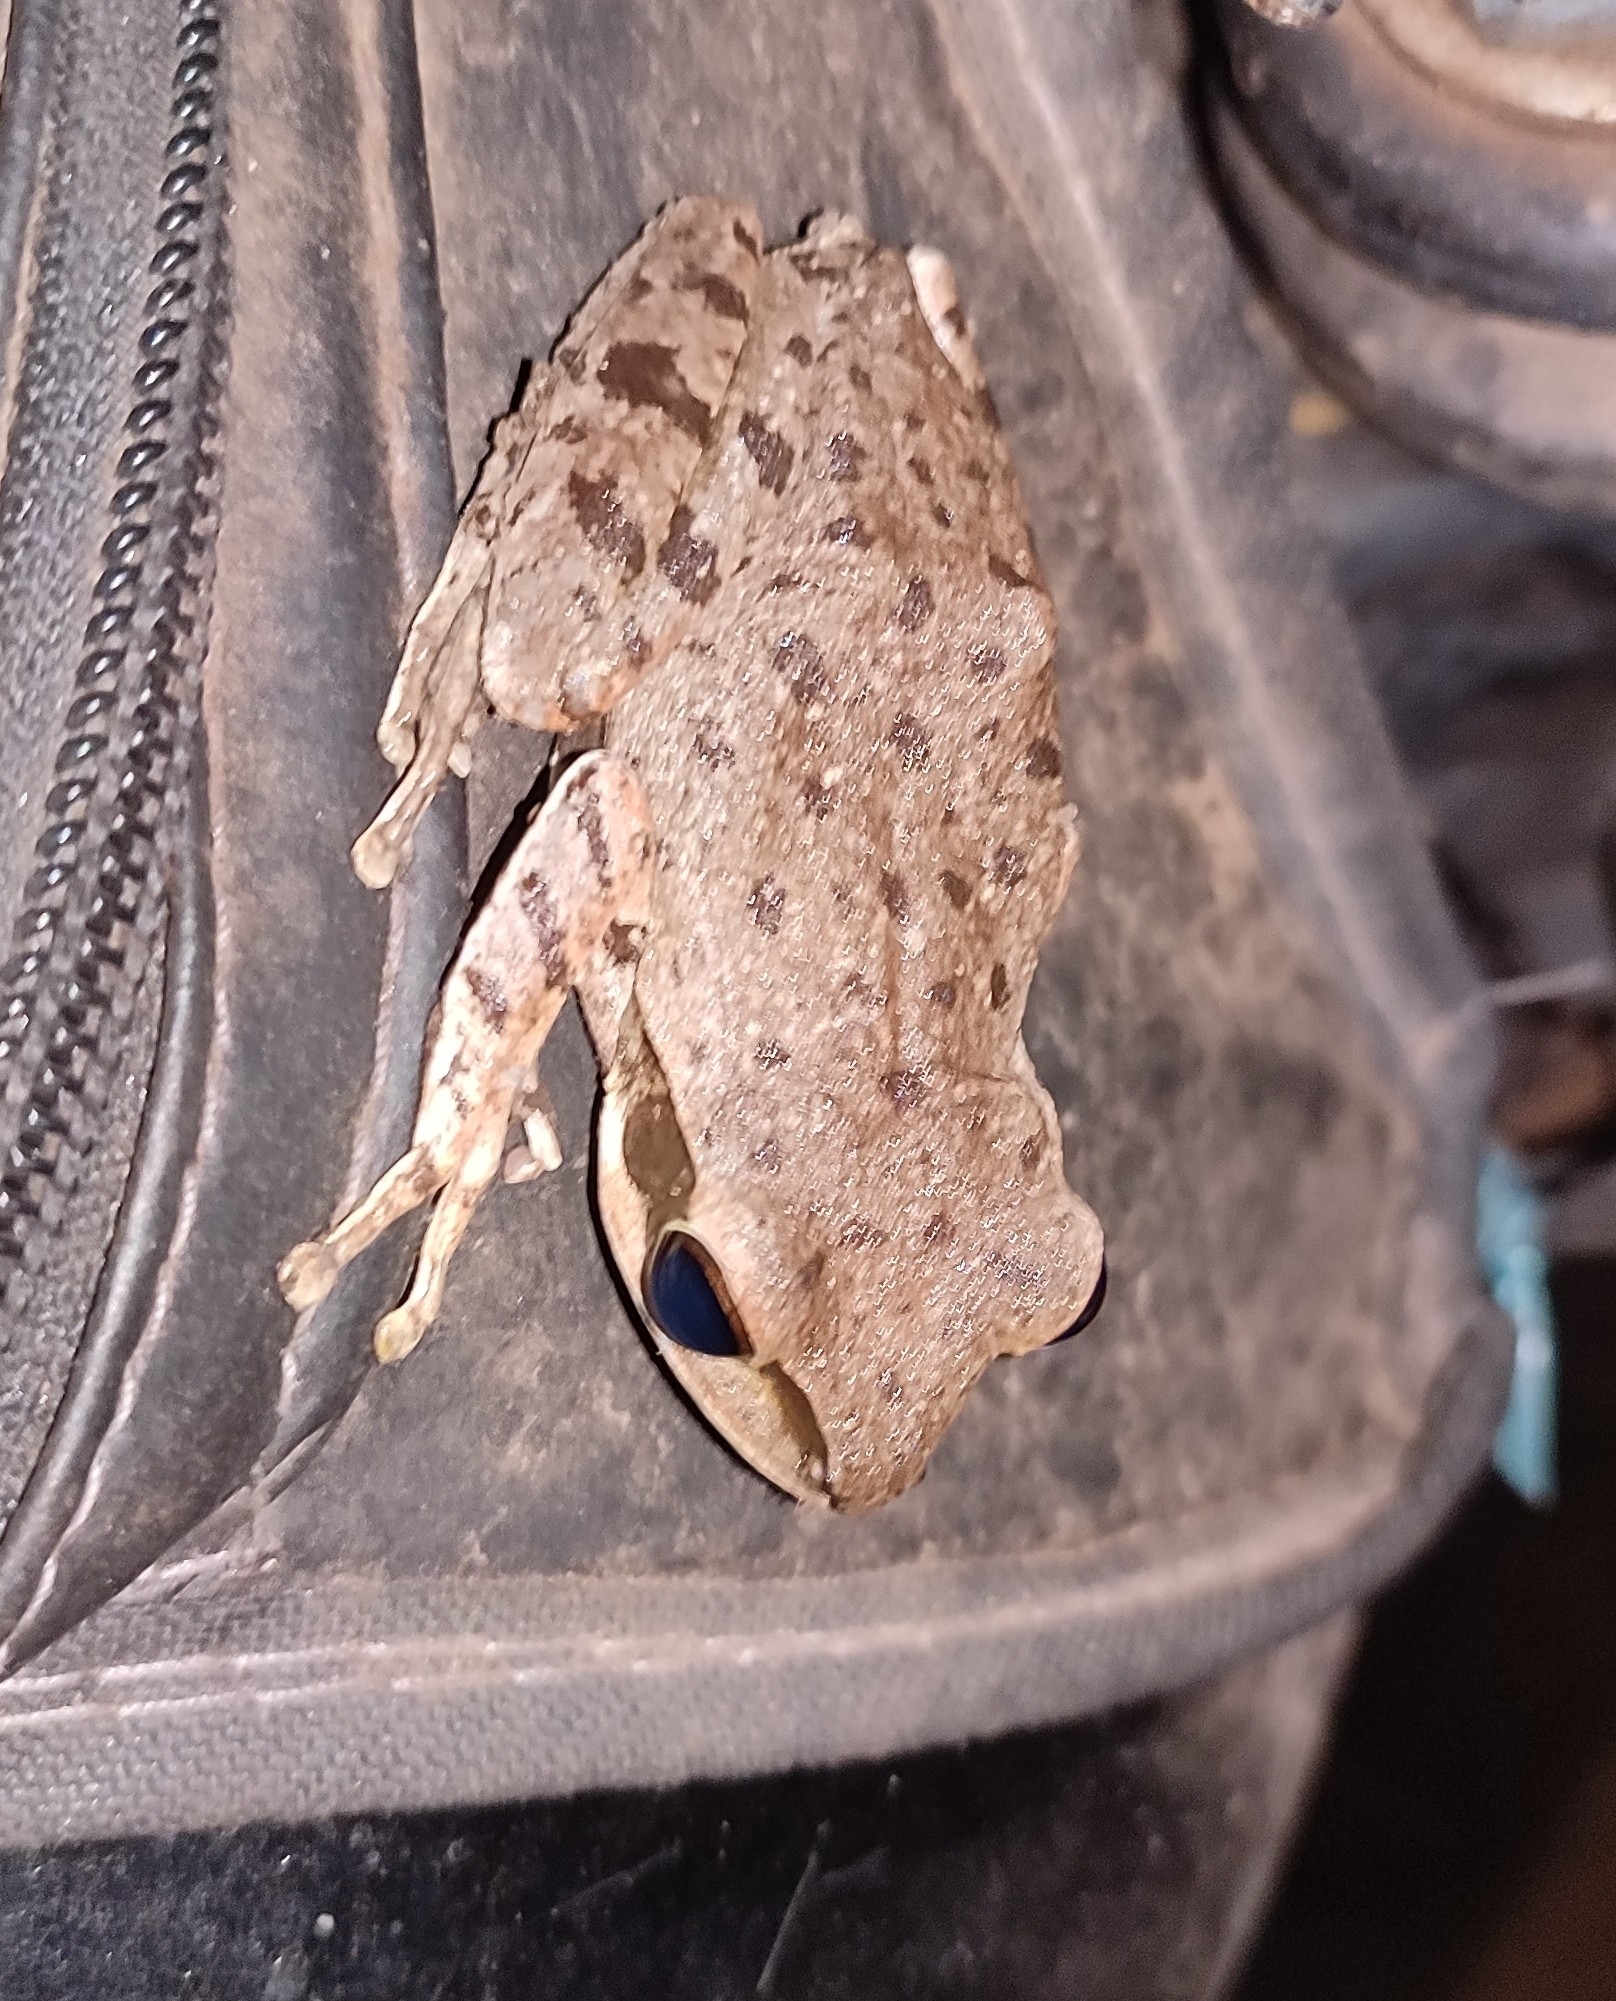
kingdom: Animalia
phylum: Chordata
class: Amphibia
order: Anura
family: Rhacophoridae
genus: Polypedates
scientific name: Polypedates maculatus
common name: Himalayan tree frog
